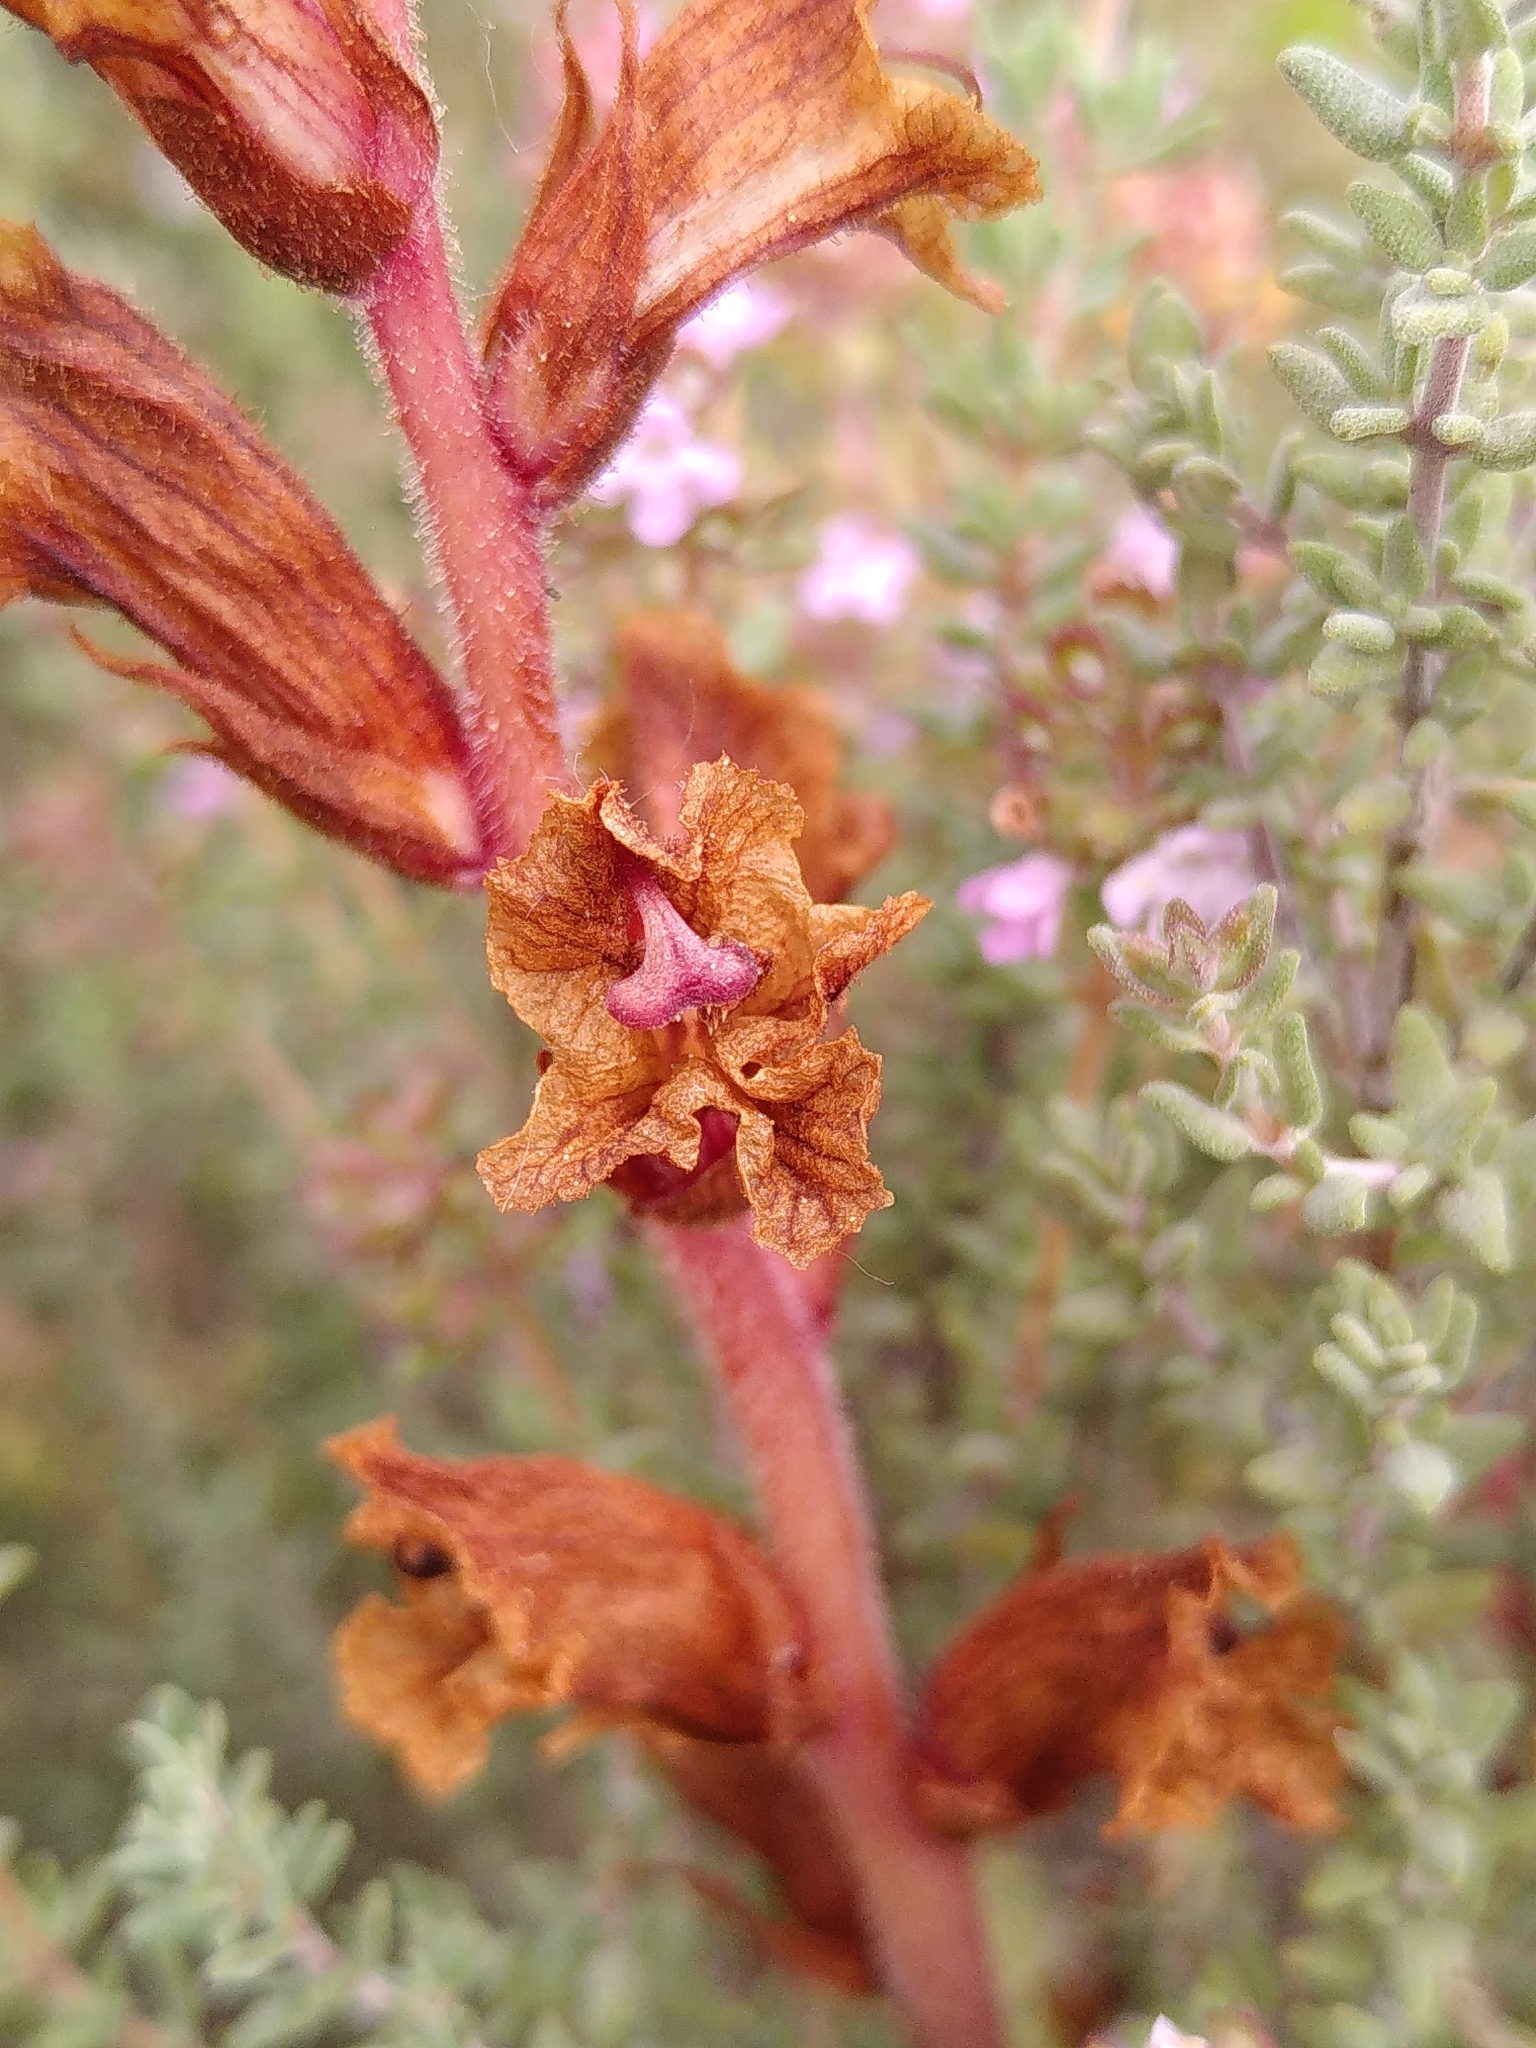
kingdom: Plantae
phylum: Tracheophyta
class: Magnoliopsida
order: Lamiales
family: Orobanchaceae
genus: Orobanche
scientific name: Orobanche alba
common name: Thyme broomrape
